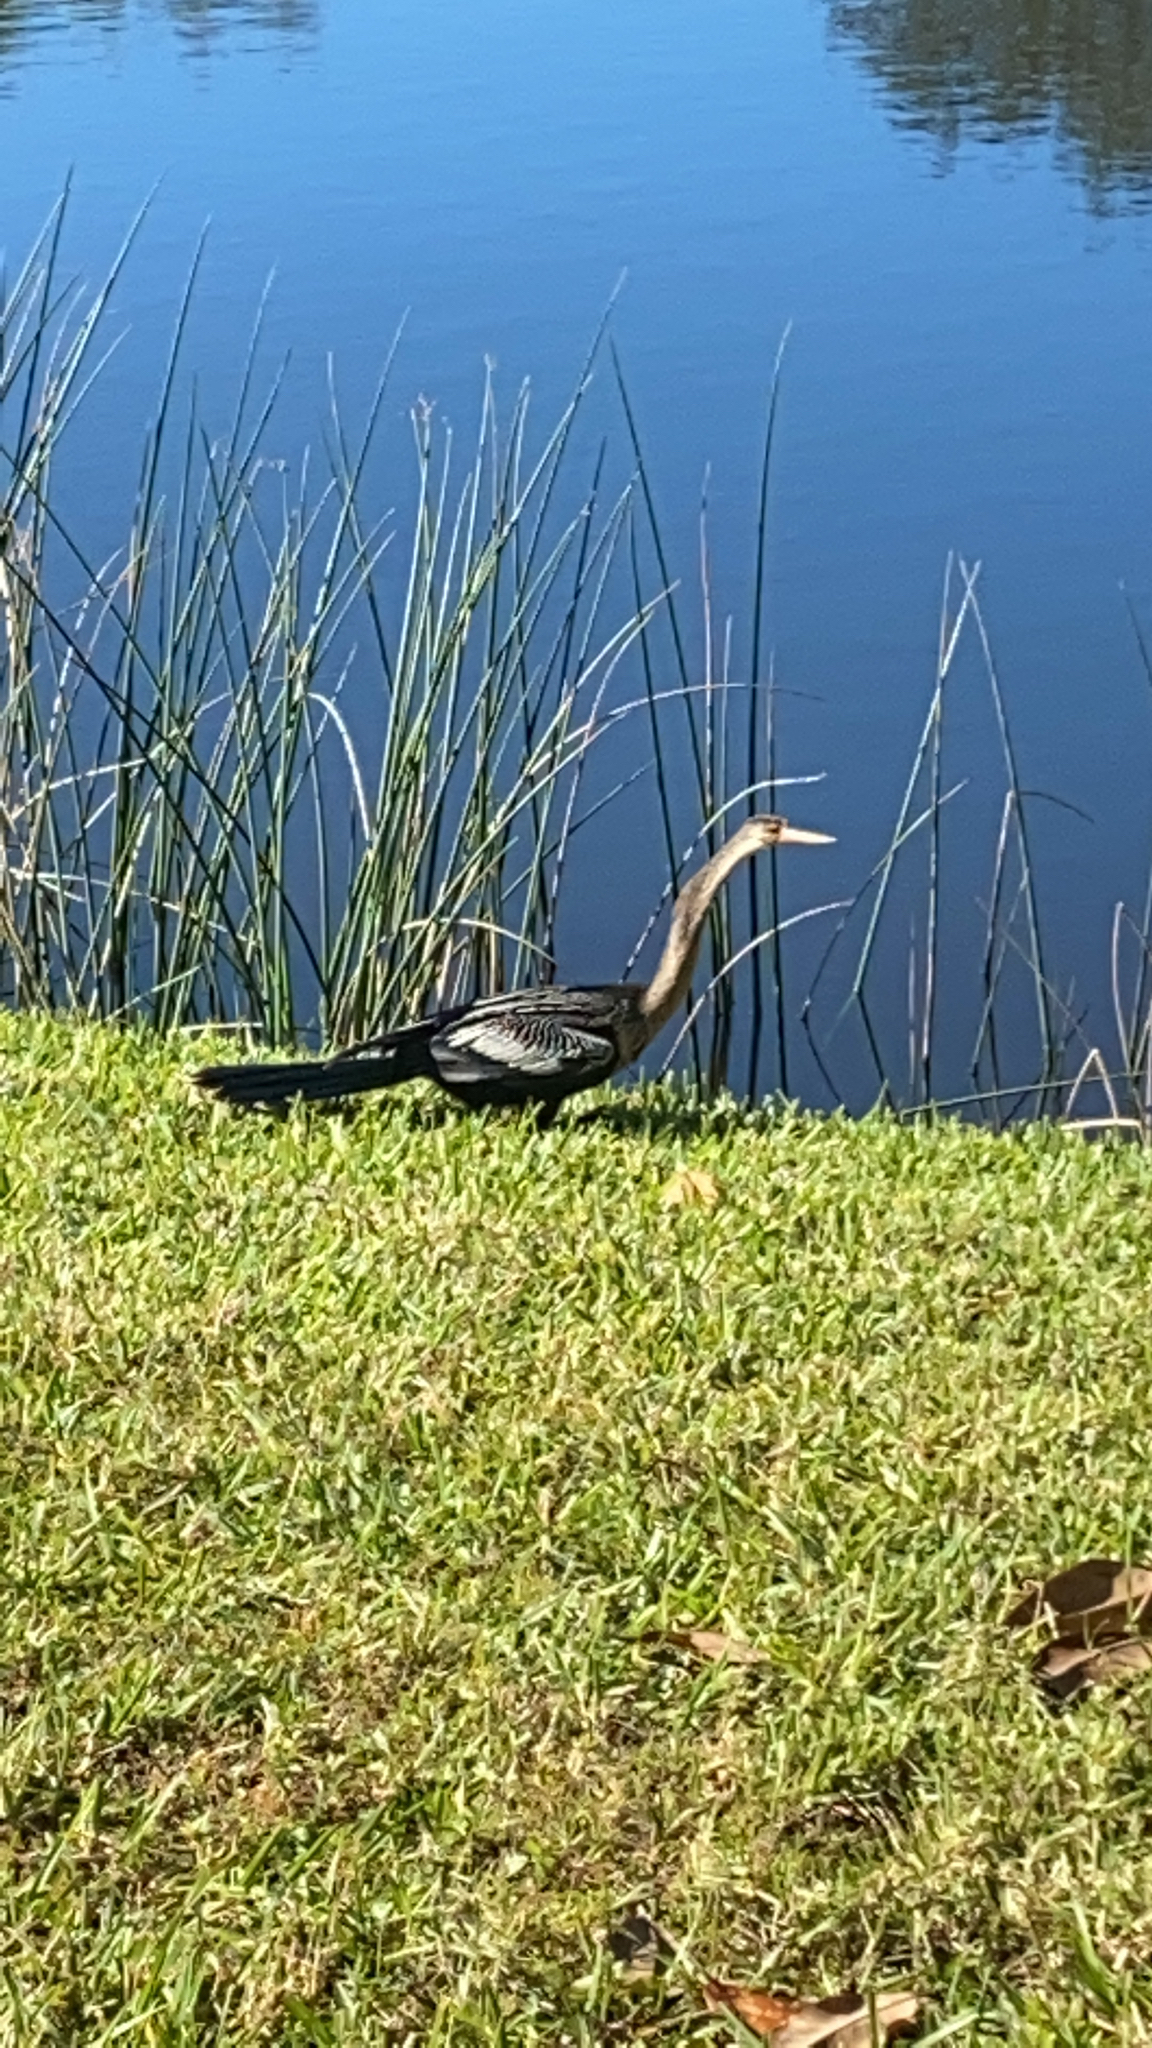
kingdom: Animalia
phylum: Chordata
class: Aves
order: Suliformes
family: Anhingidae
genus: Anhinga
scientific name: Anhinga anhinga
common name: Anhinga
